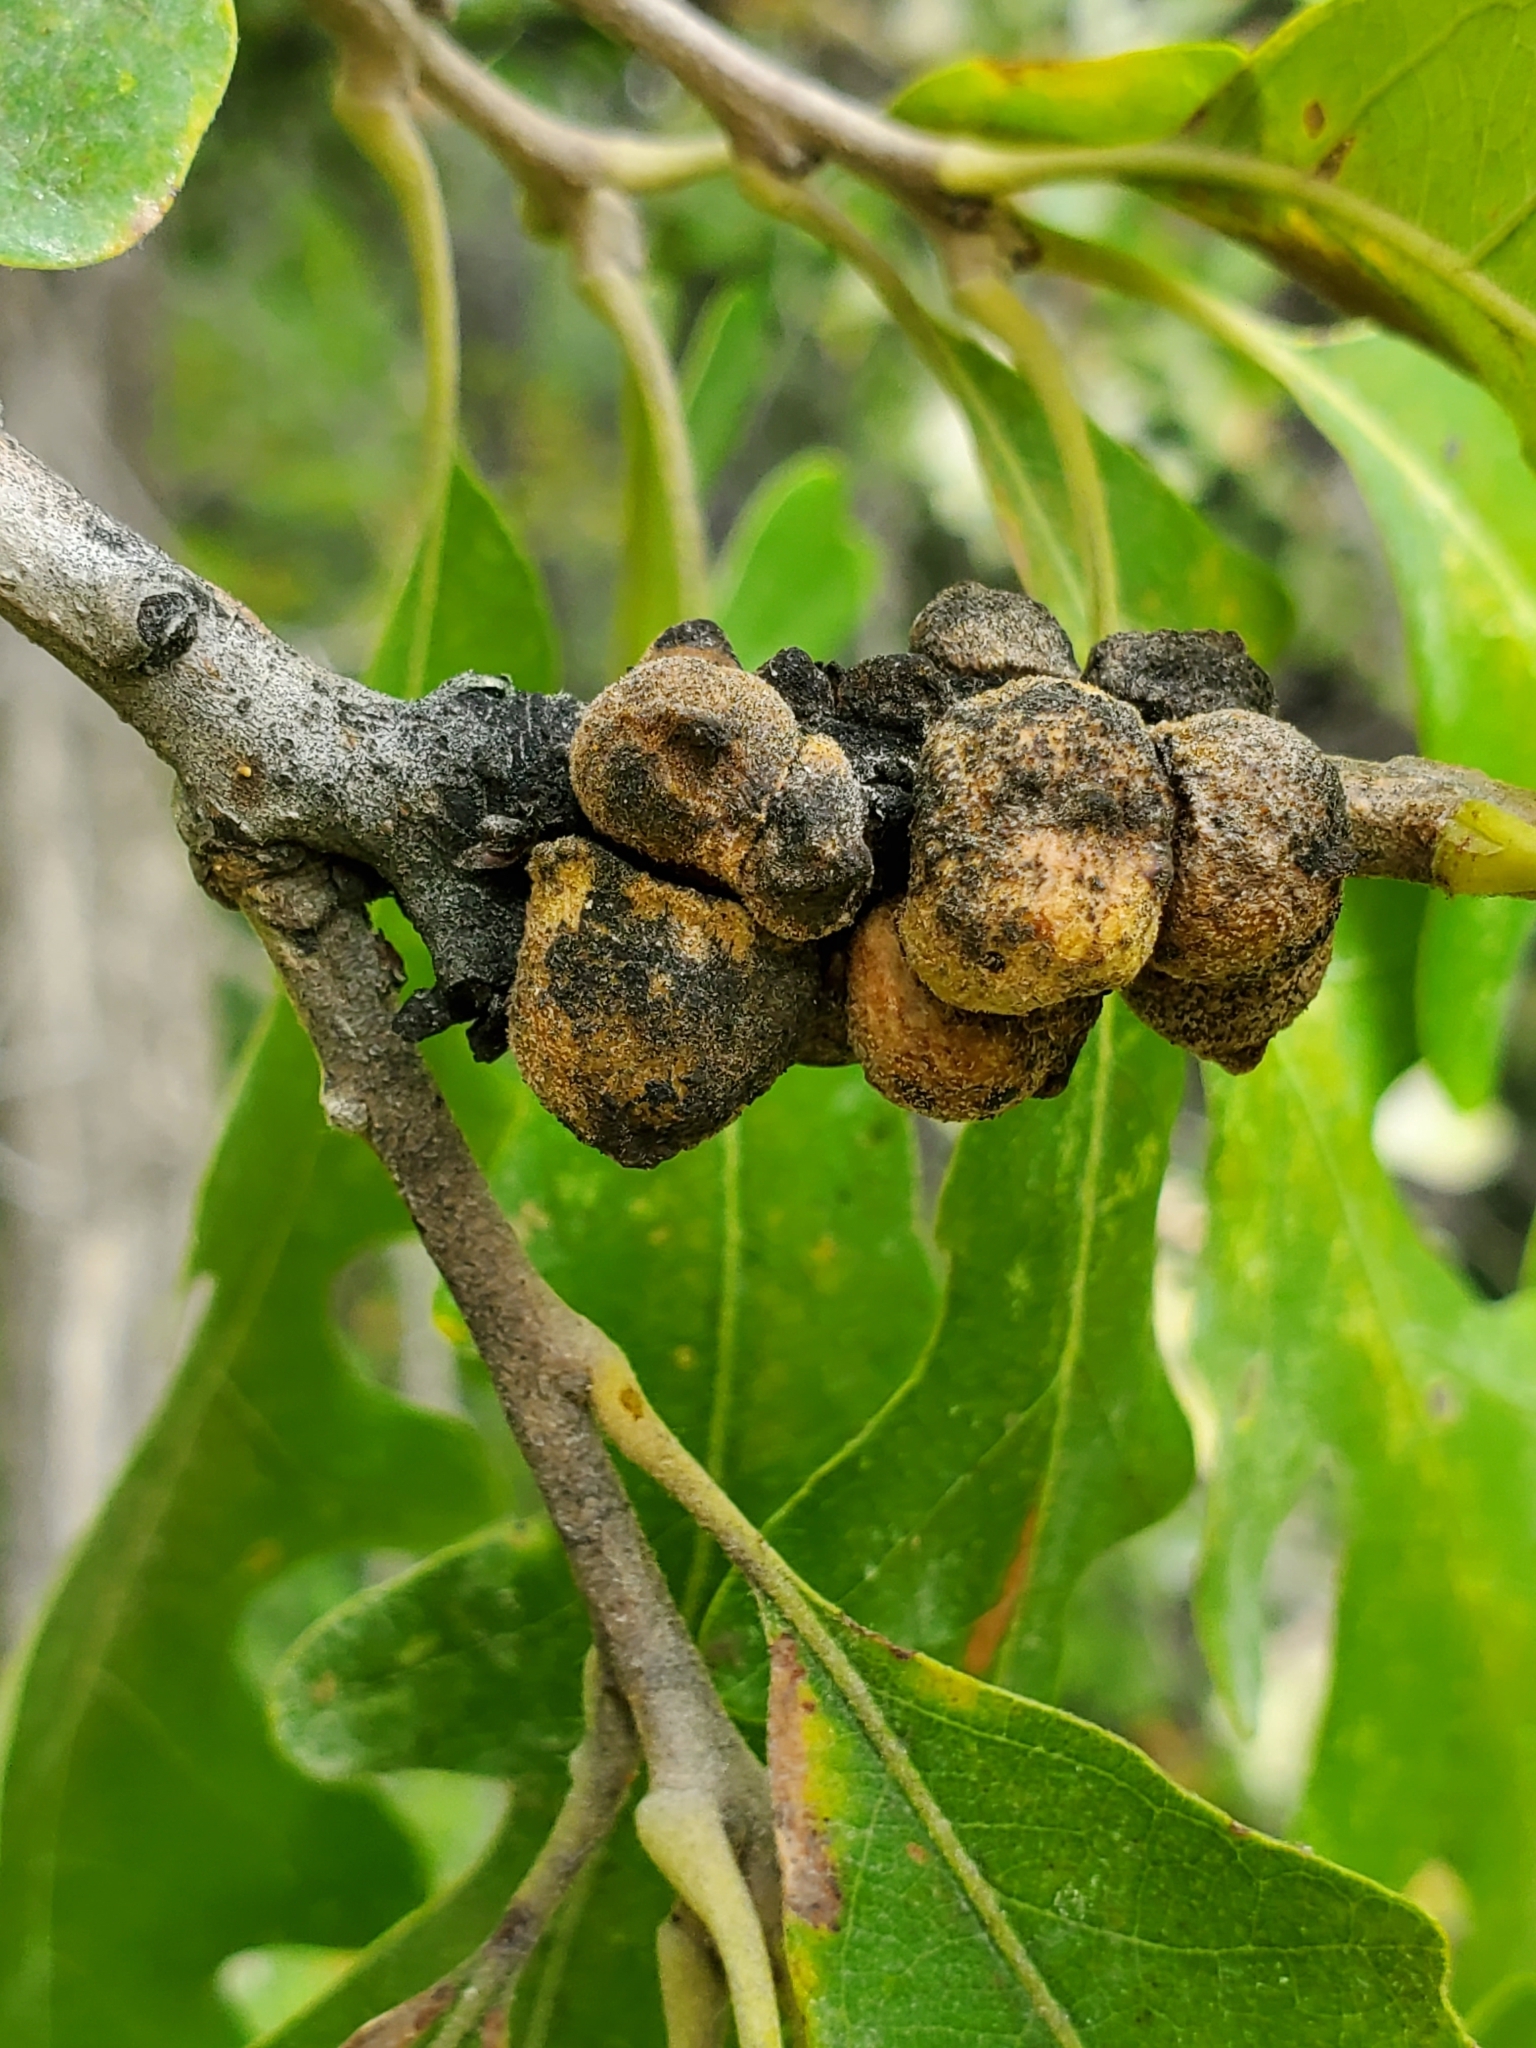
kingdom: Animalia
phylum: Arthropoda
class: Insecta
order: Hymenoptera
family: Cynipidae
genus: Disholcaspis
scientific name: Disholcaspis
